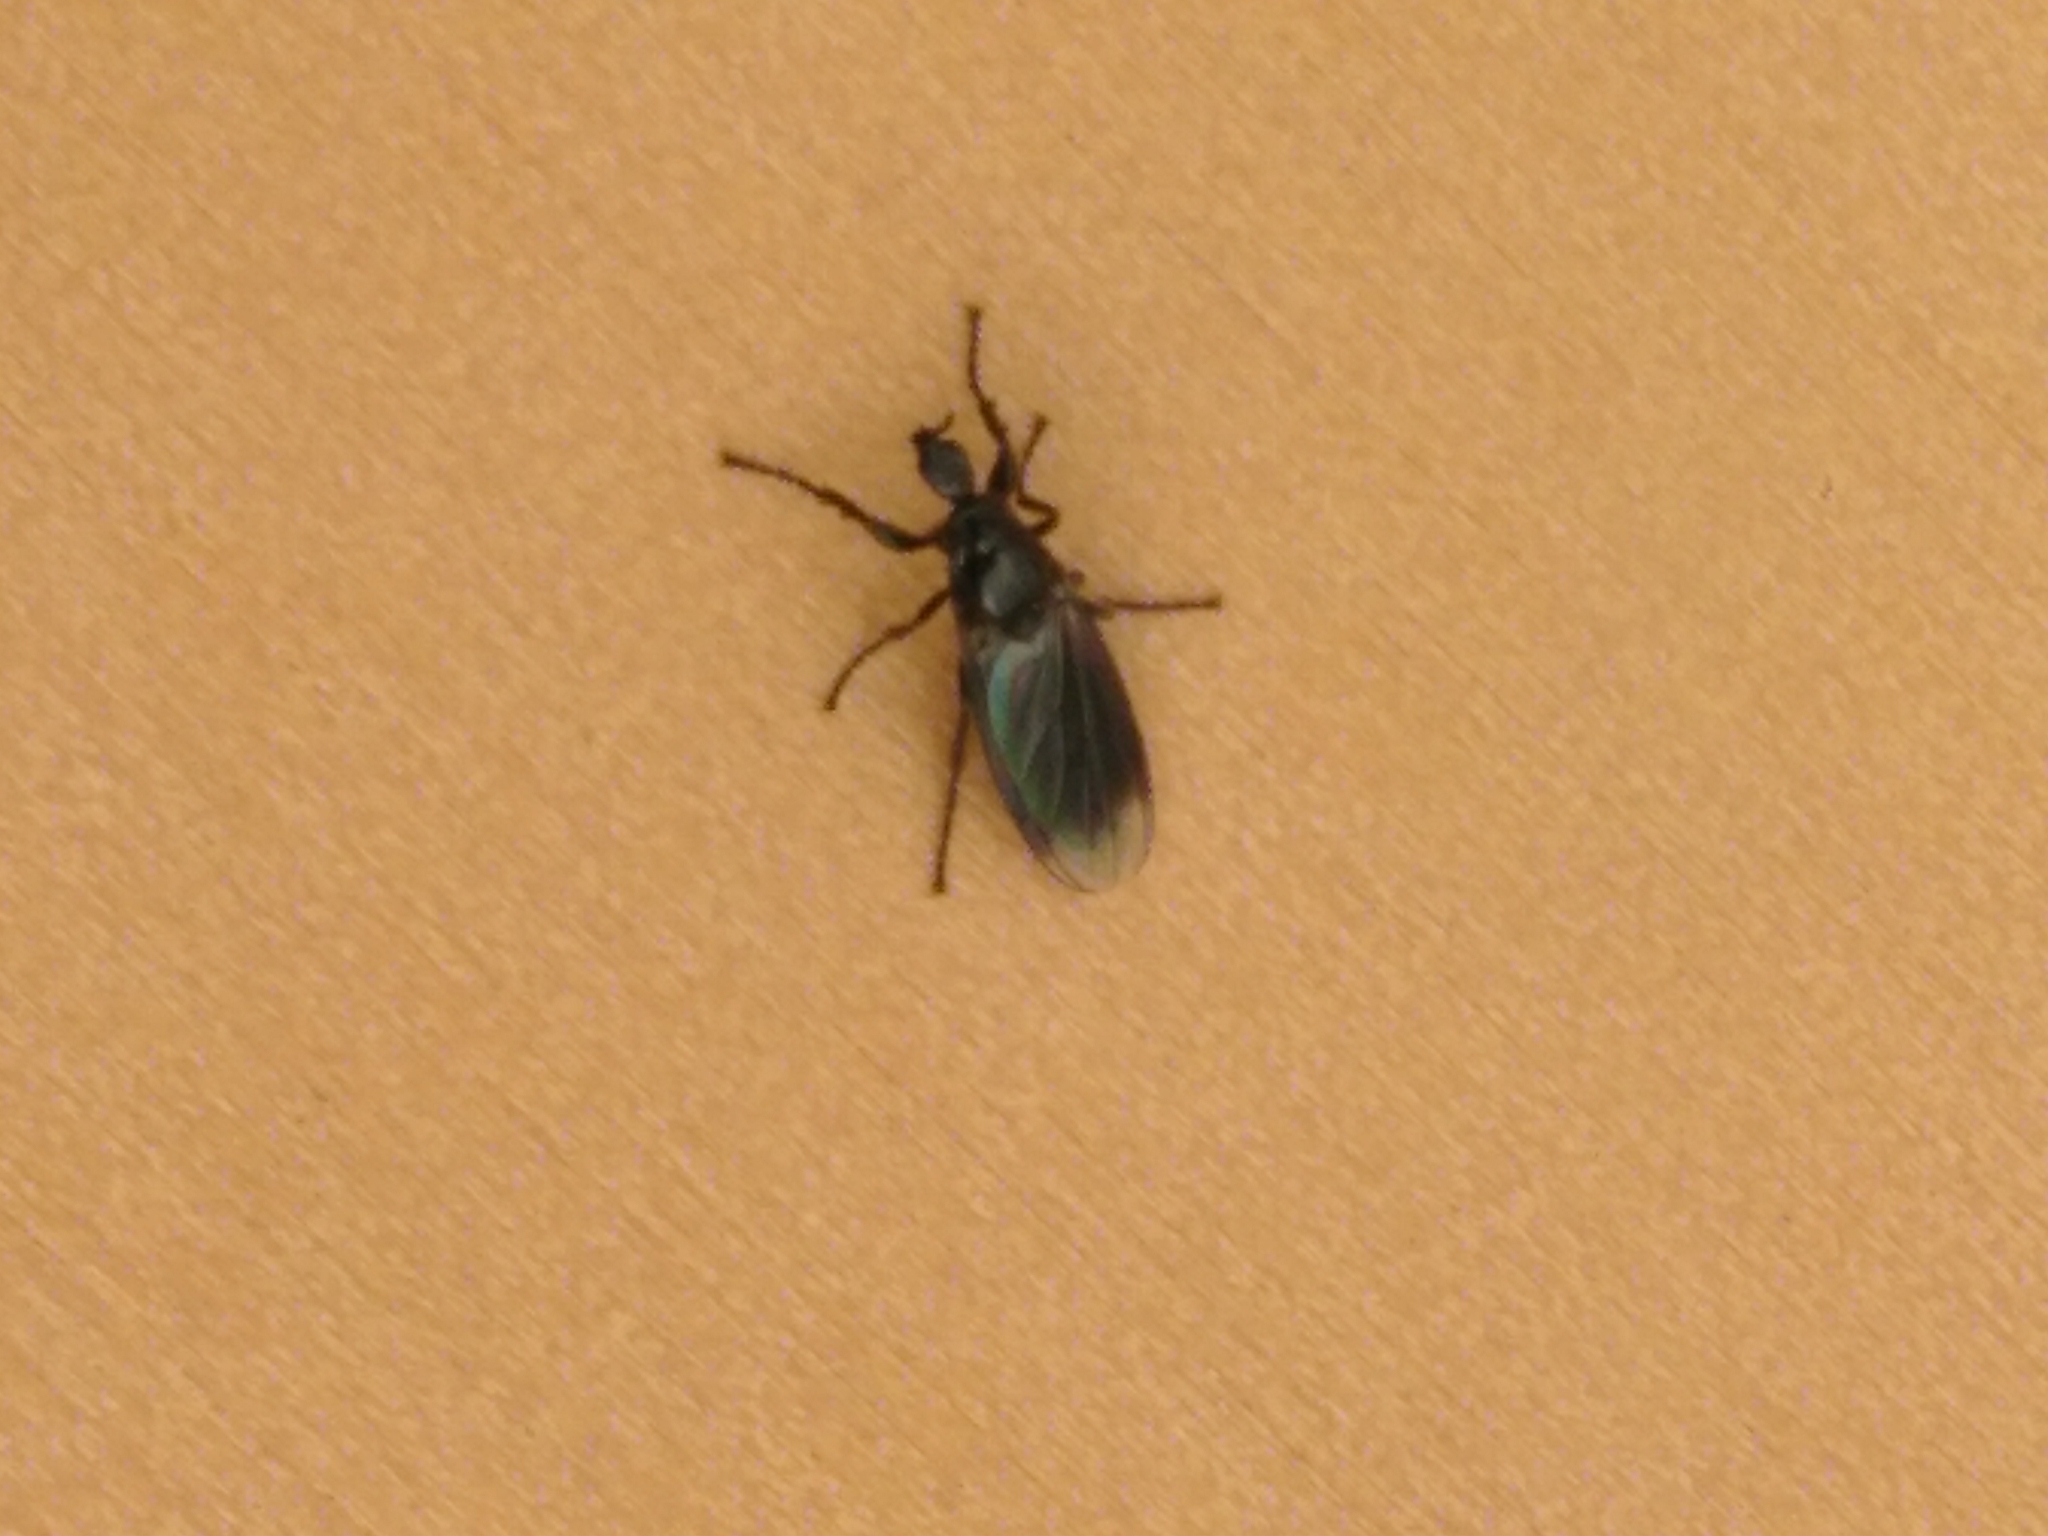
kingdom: Animalia
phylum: Arthropoda
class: Insecta
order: Diptera
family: Bibionidae
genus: Dilophus
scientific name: Dilophus febrilis
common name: Fever fly
